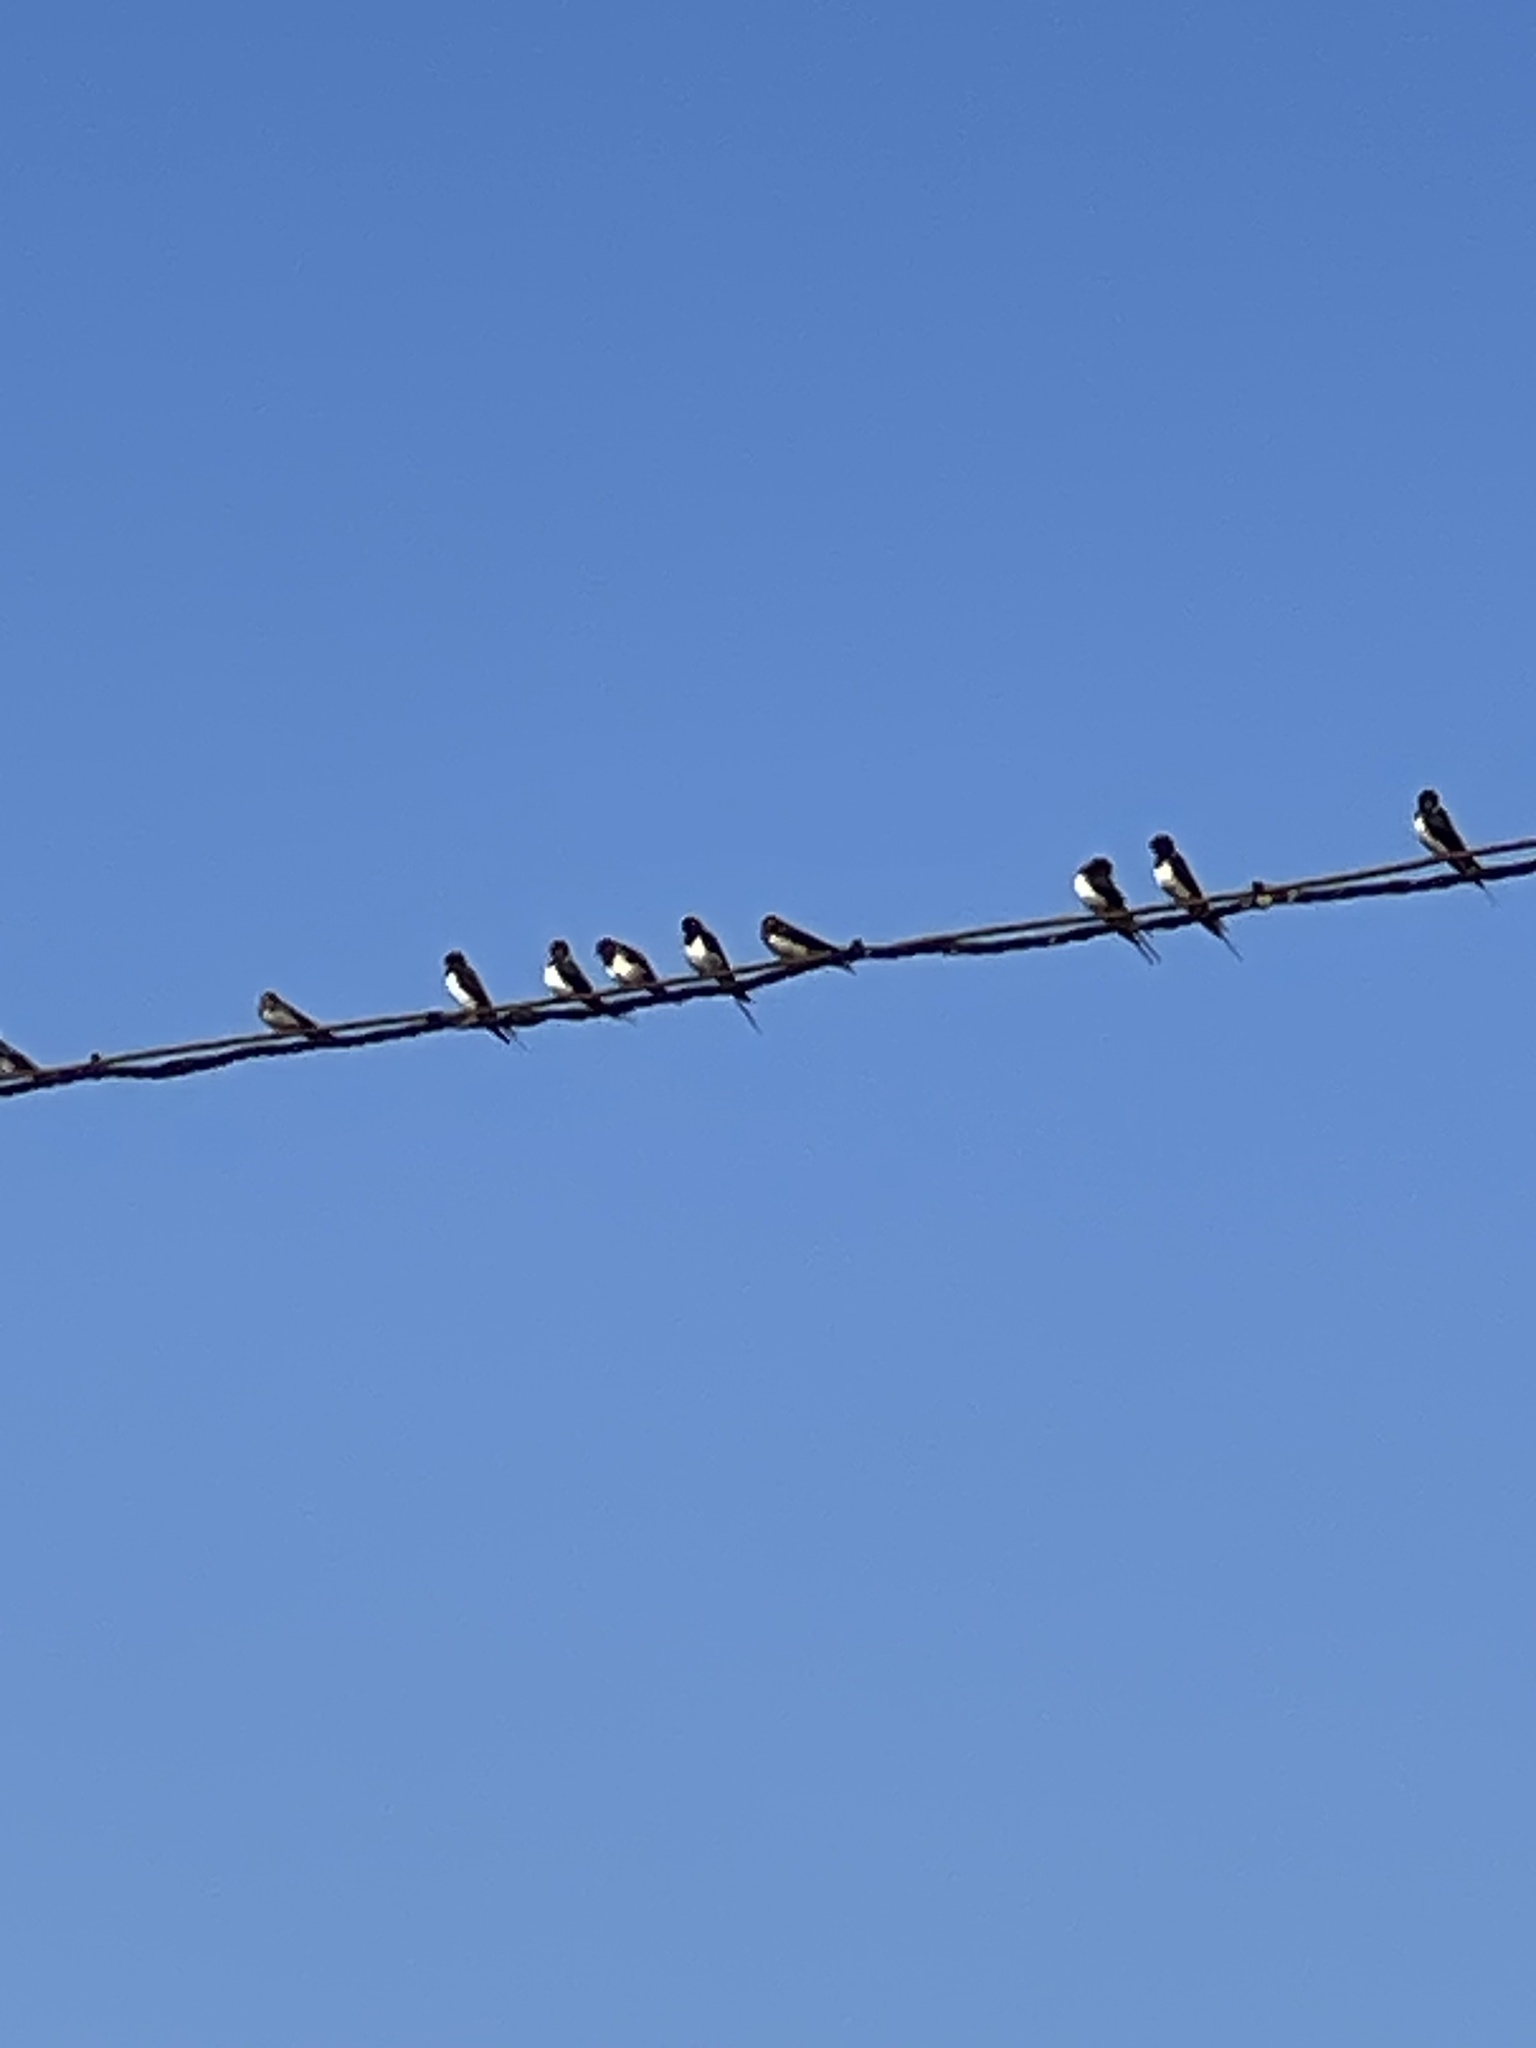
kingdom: Animalia
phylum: Chordata
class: Aves
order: Passeriformes
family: Hirundinidae
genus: Hirundo
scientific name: Hirundo rustica
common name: Barn swallow
